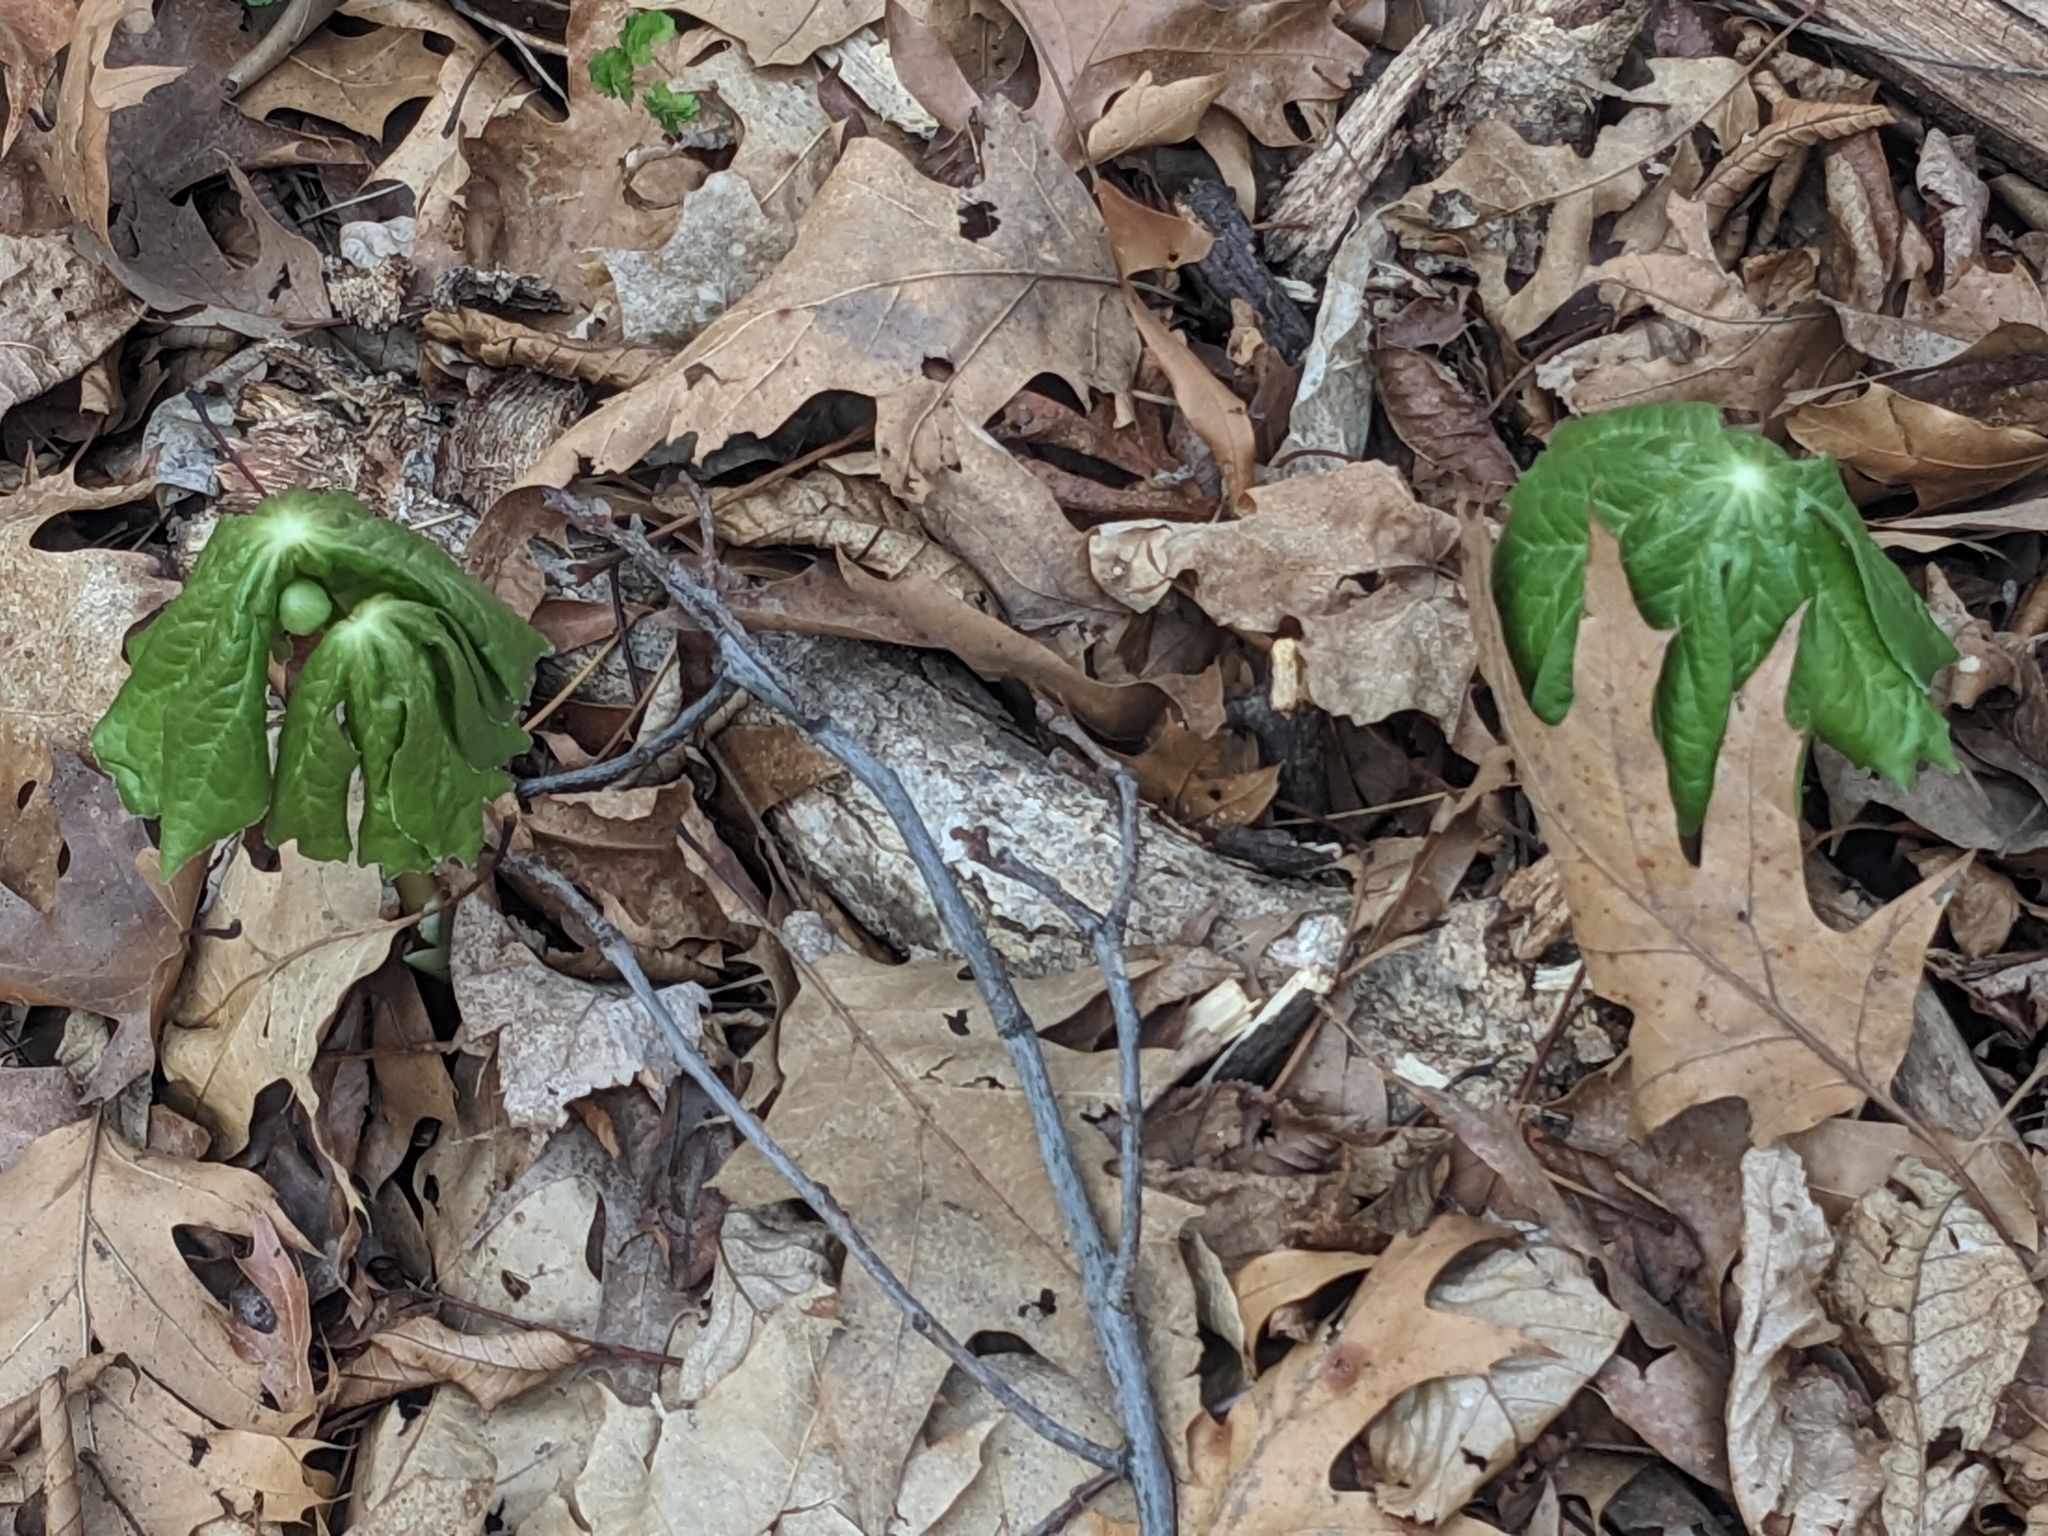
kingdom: Plantae
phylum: Tracheophyta
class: Magnoliopsida
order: Ranunculales
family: Berberidaceae
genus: Podophyllum
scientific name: Podophyllum peltatum
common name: Wild mandrake
